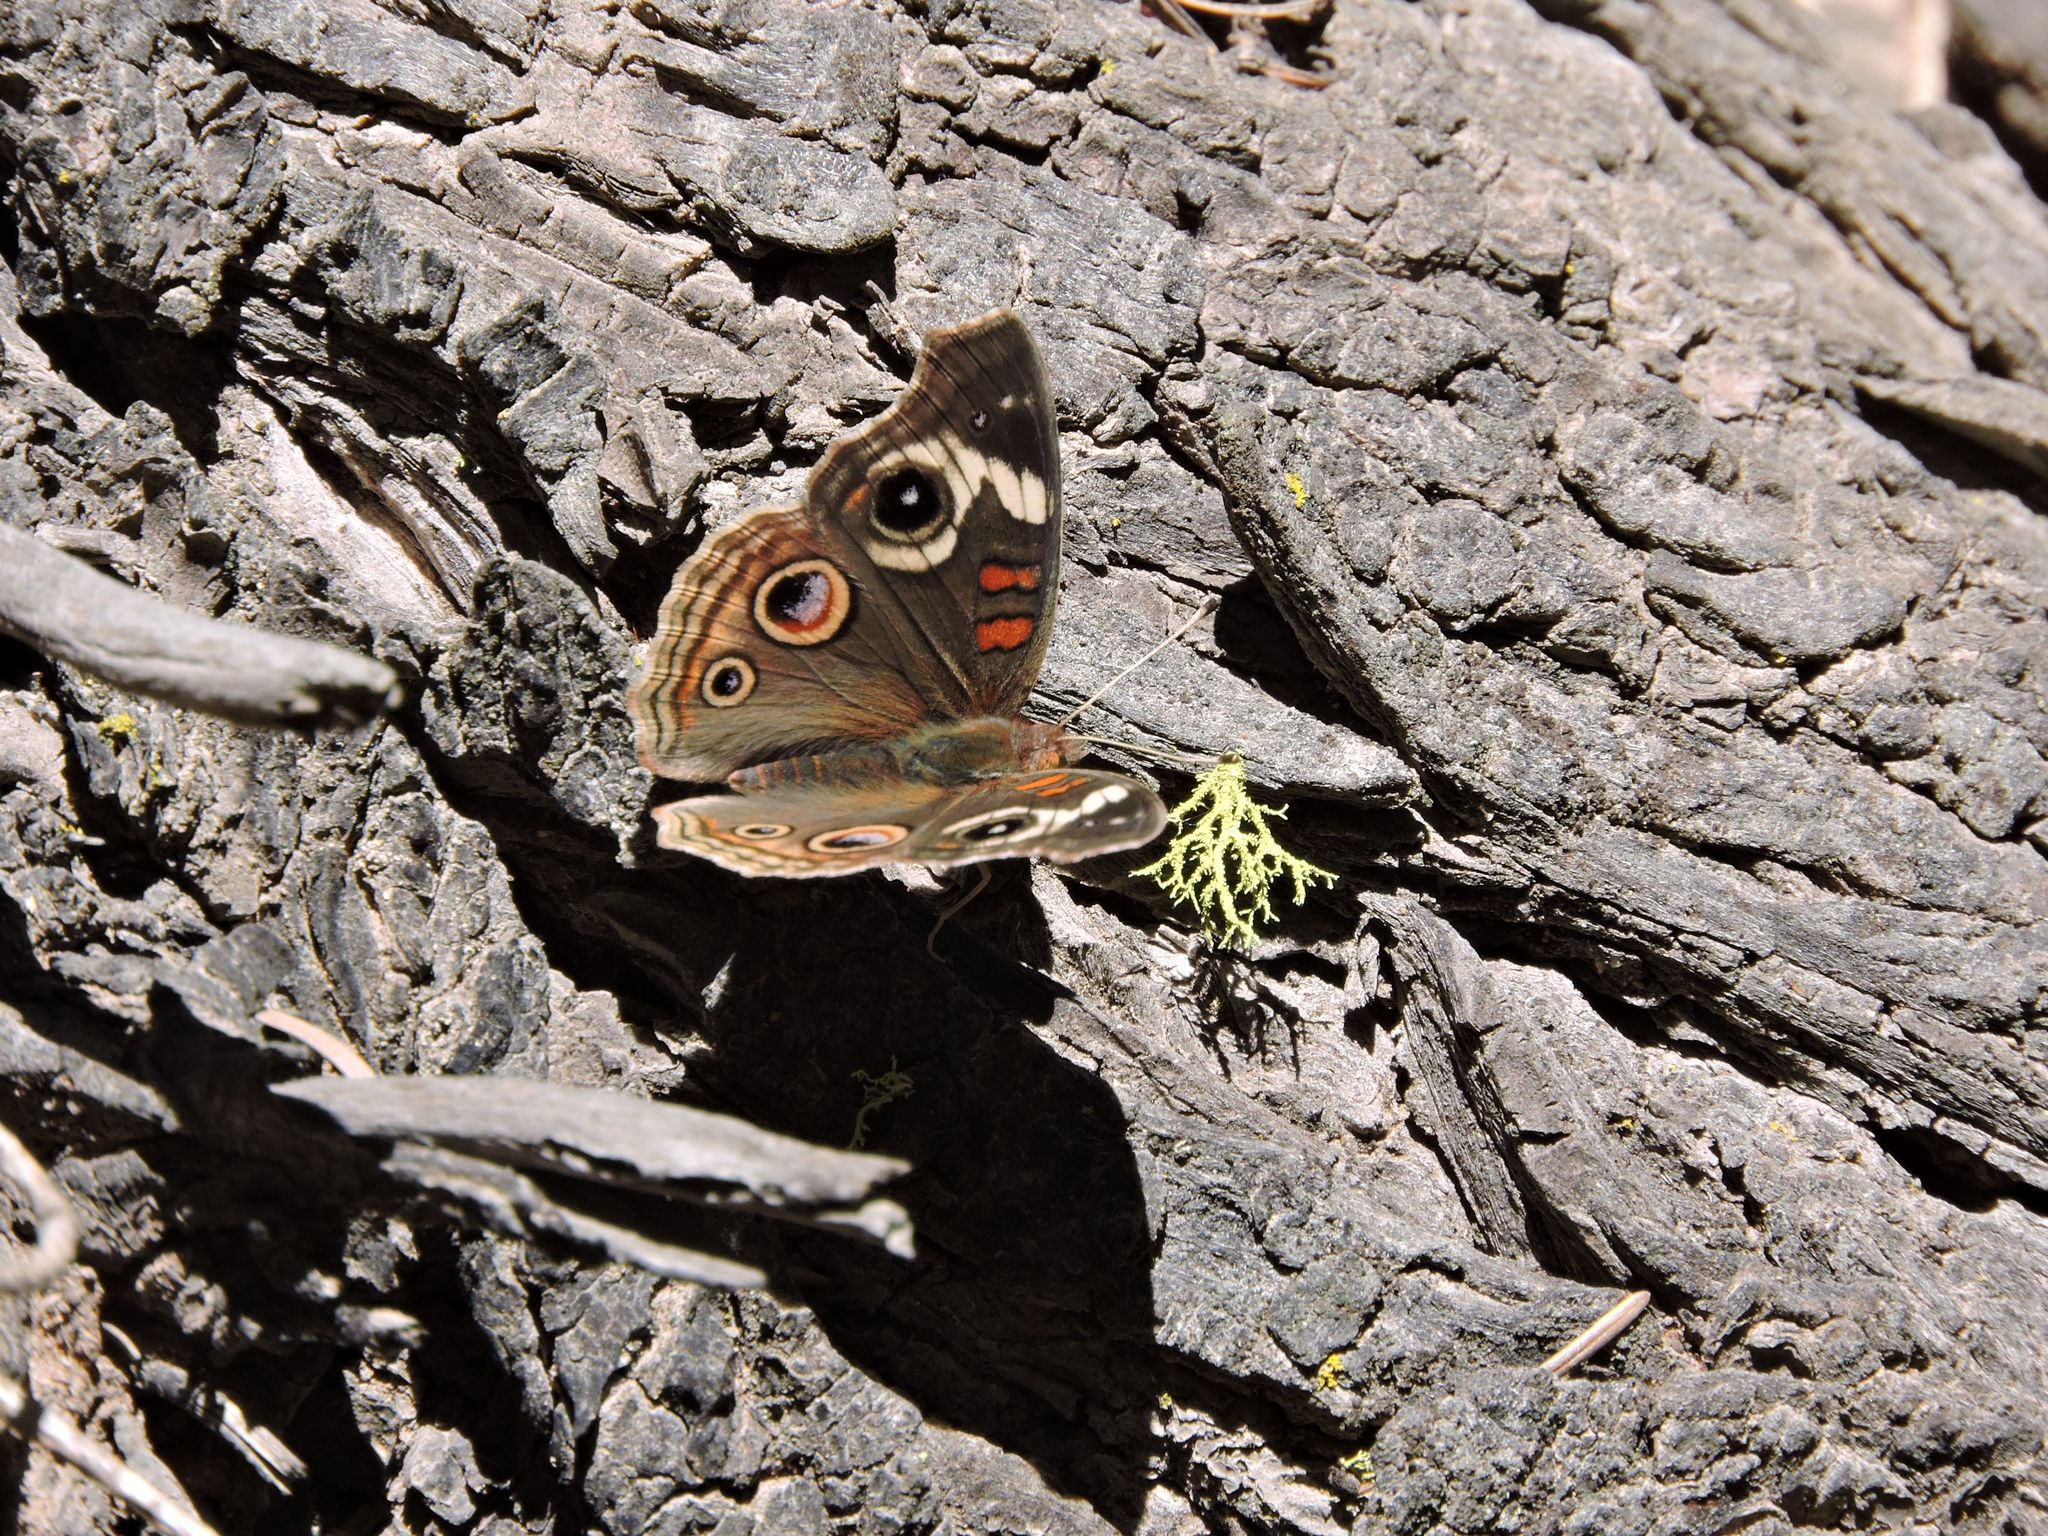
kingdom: Animalia
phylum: Arthropoda
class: Insecta
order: Lepidoptera
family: Nymphalidae
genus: Junonia
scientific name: Junonia grisea
